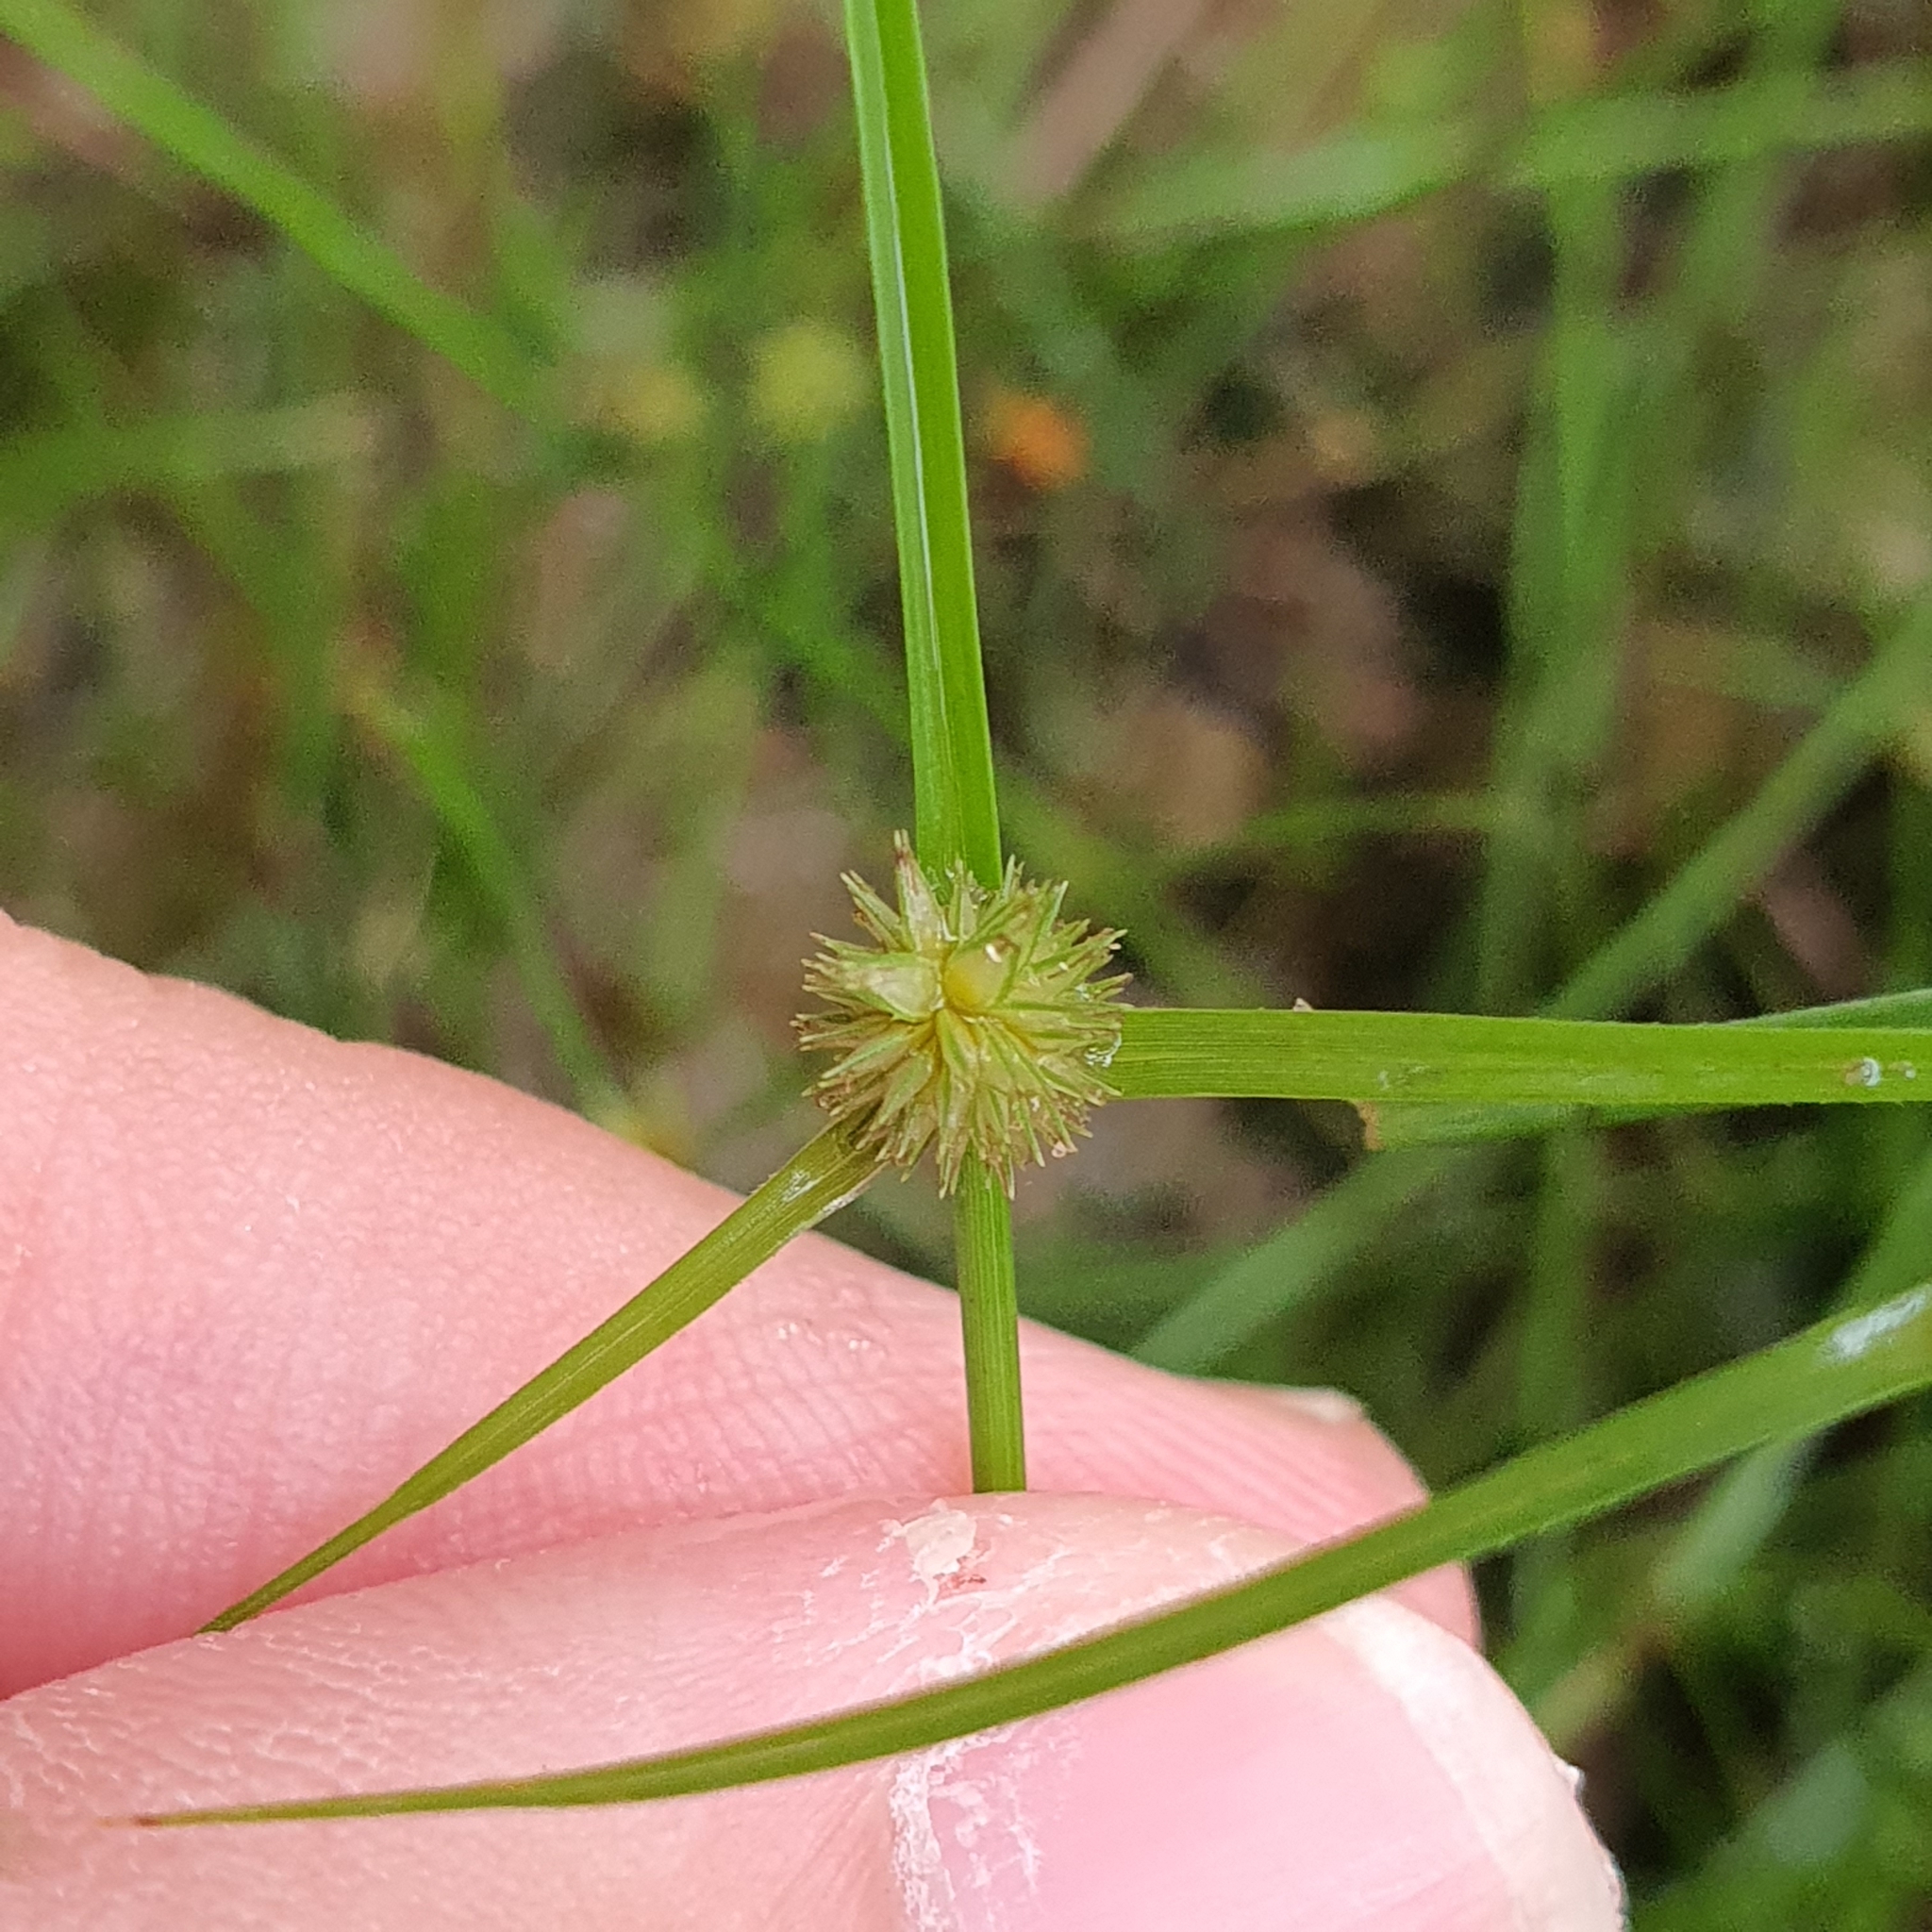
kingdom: Plantae
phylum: Tracheophyta
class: Liliopsida
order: Poales
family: Cyperaceae
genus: Cyperus
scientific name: Cyperus brevifolius
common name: Globe kyllinga
